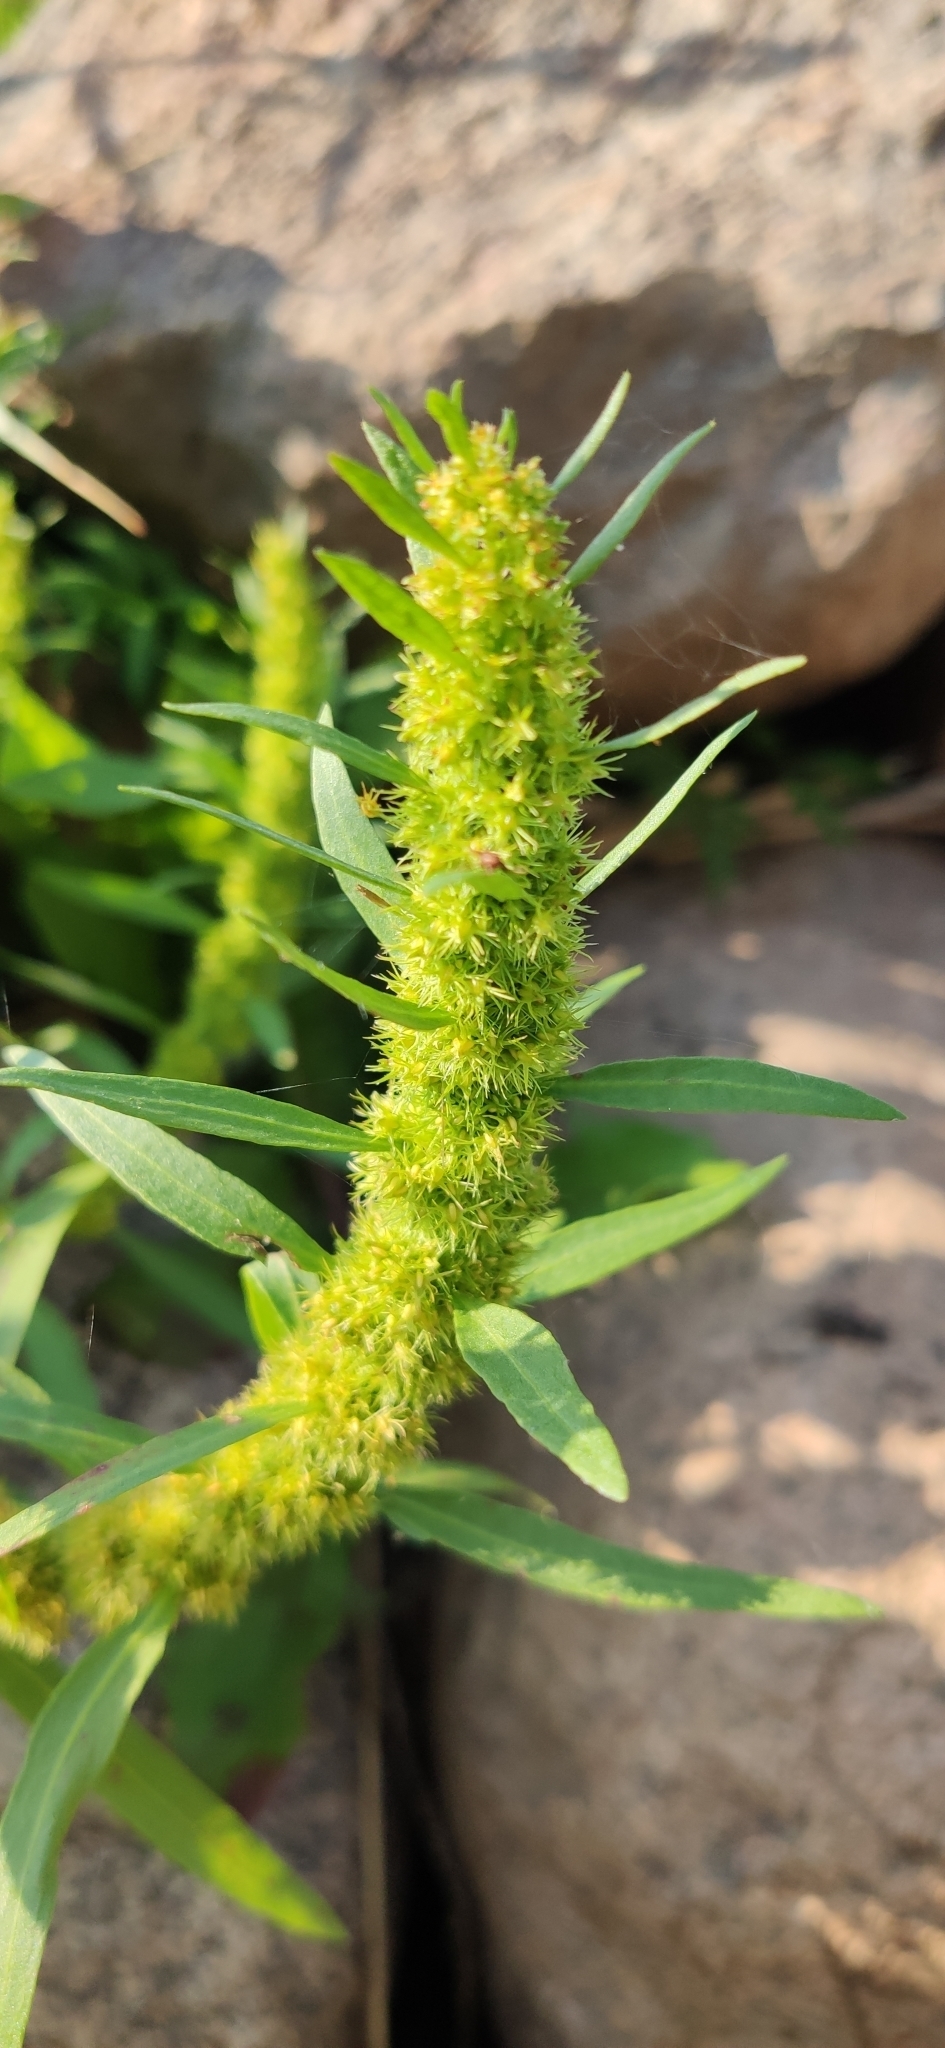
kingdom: Plantae
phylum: Tracheophyta
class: Magnoliopsida
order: Caryophyllales
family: Polygonaceae
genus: Rumex
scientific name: Rumex maritimus
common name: Golden dock
